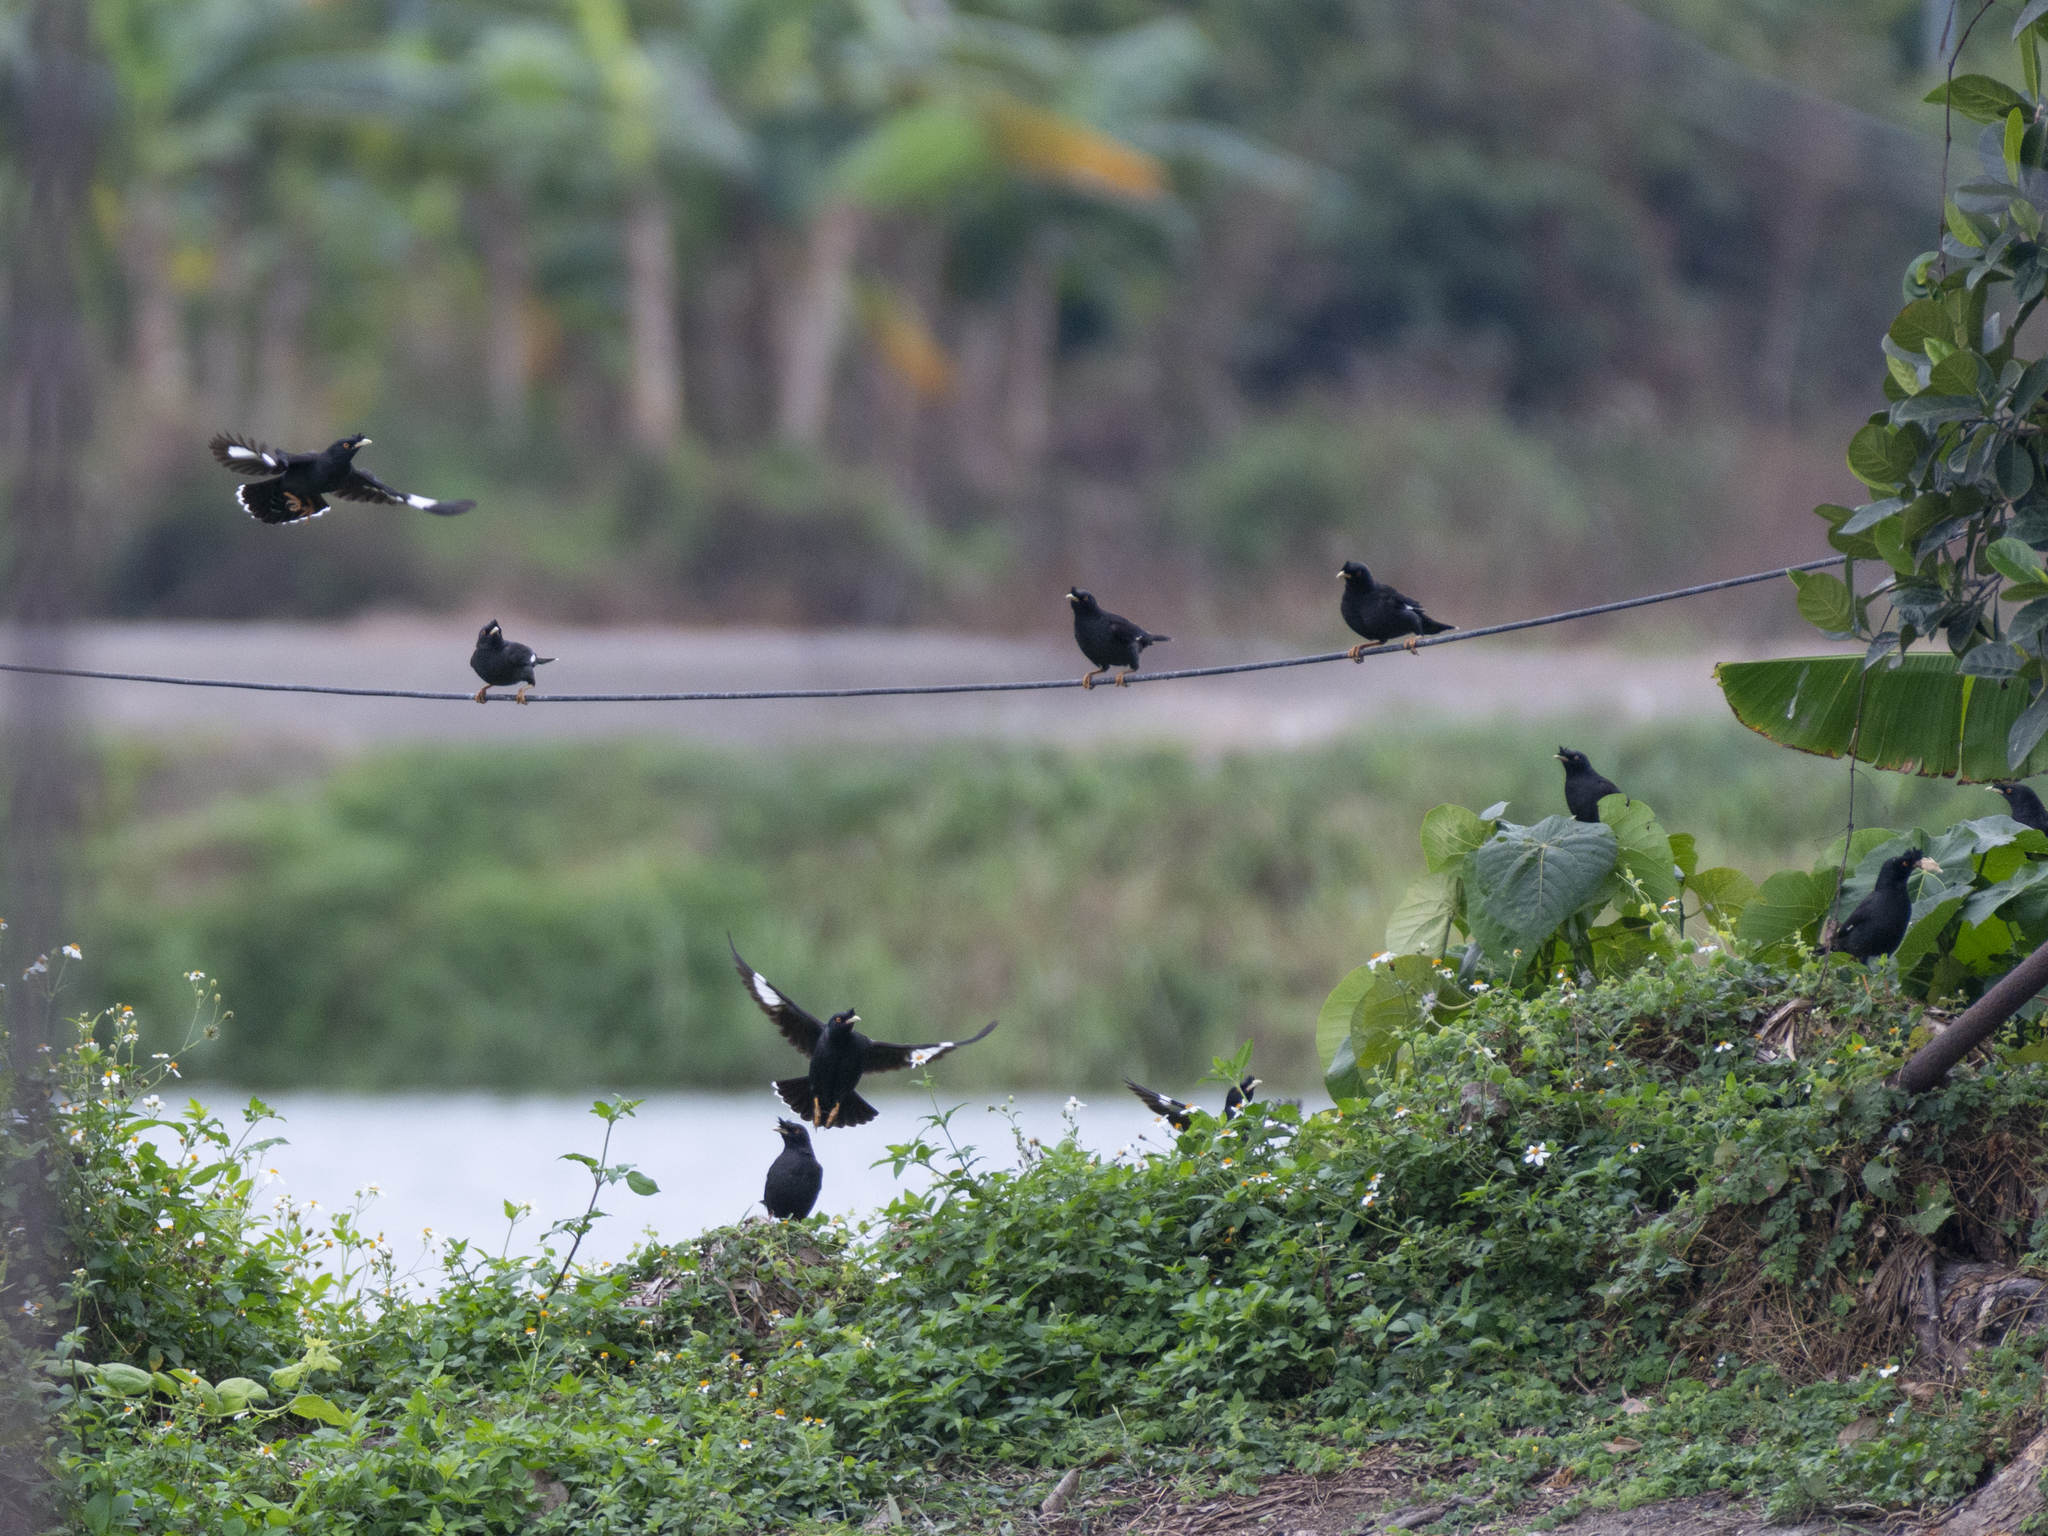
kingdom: Animalia
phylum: Chordata
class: Aves
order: Passeriformes
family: Sturnidae
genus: Acridotheres
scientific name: Acridotheres cristatellus
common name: Crested myna
